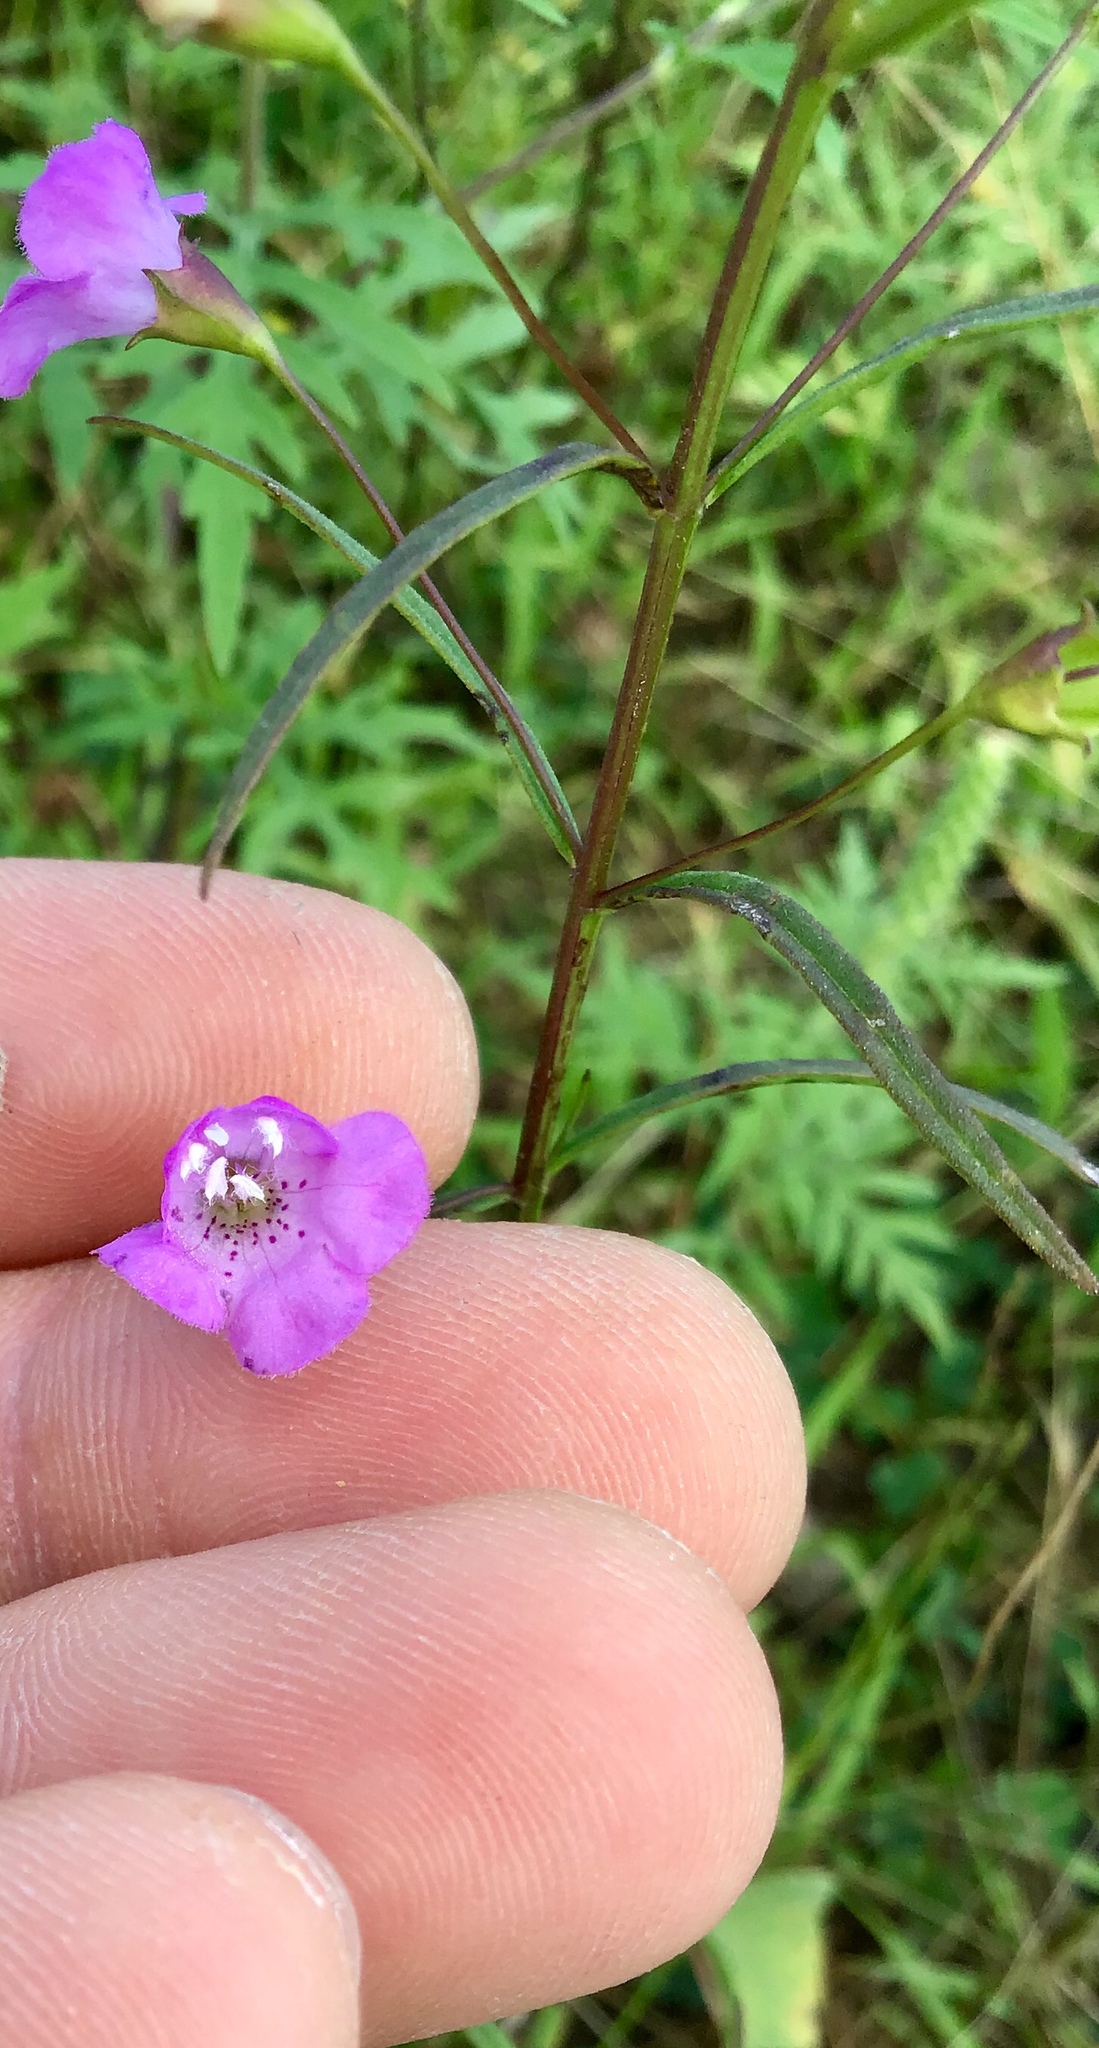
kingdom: Plantae
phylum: Tracheophyta
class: Magnoliopsida
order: Lamiales
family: Orobanchaceae
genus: Agalinis
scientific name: Agalinis tenuifolia
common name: Slender agalinis
